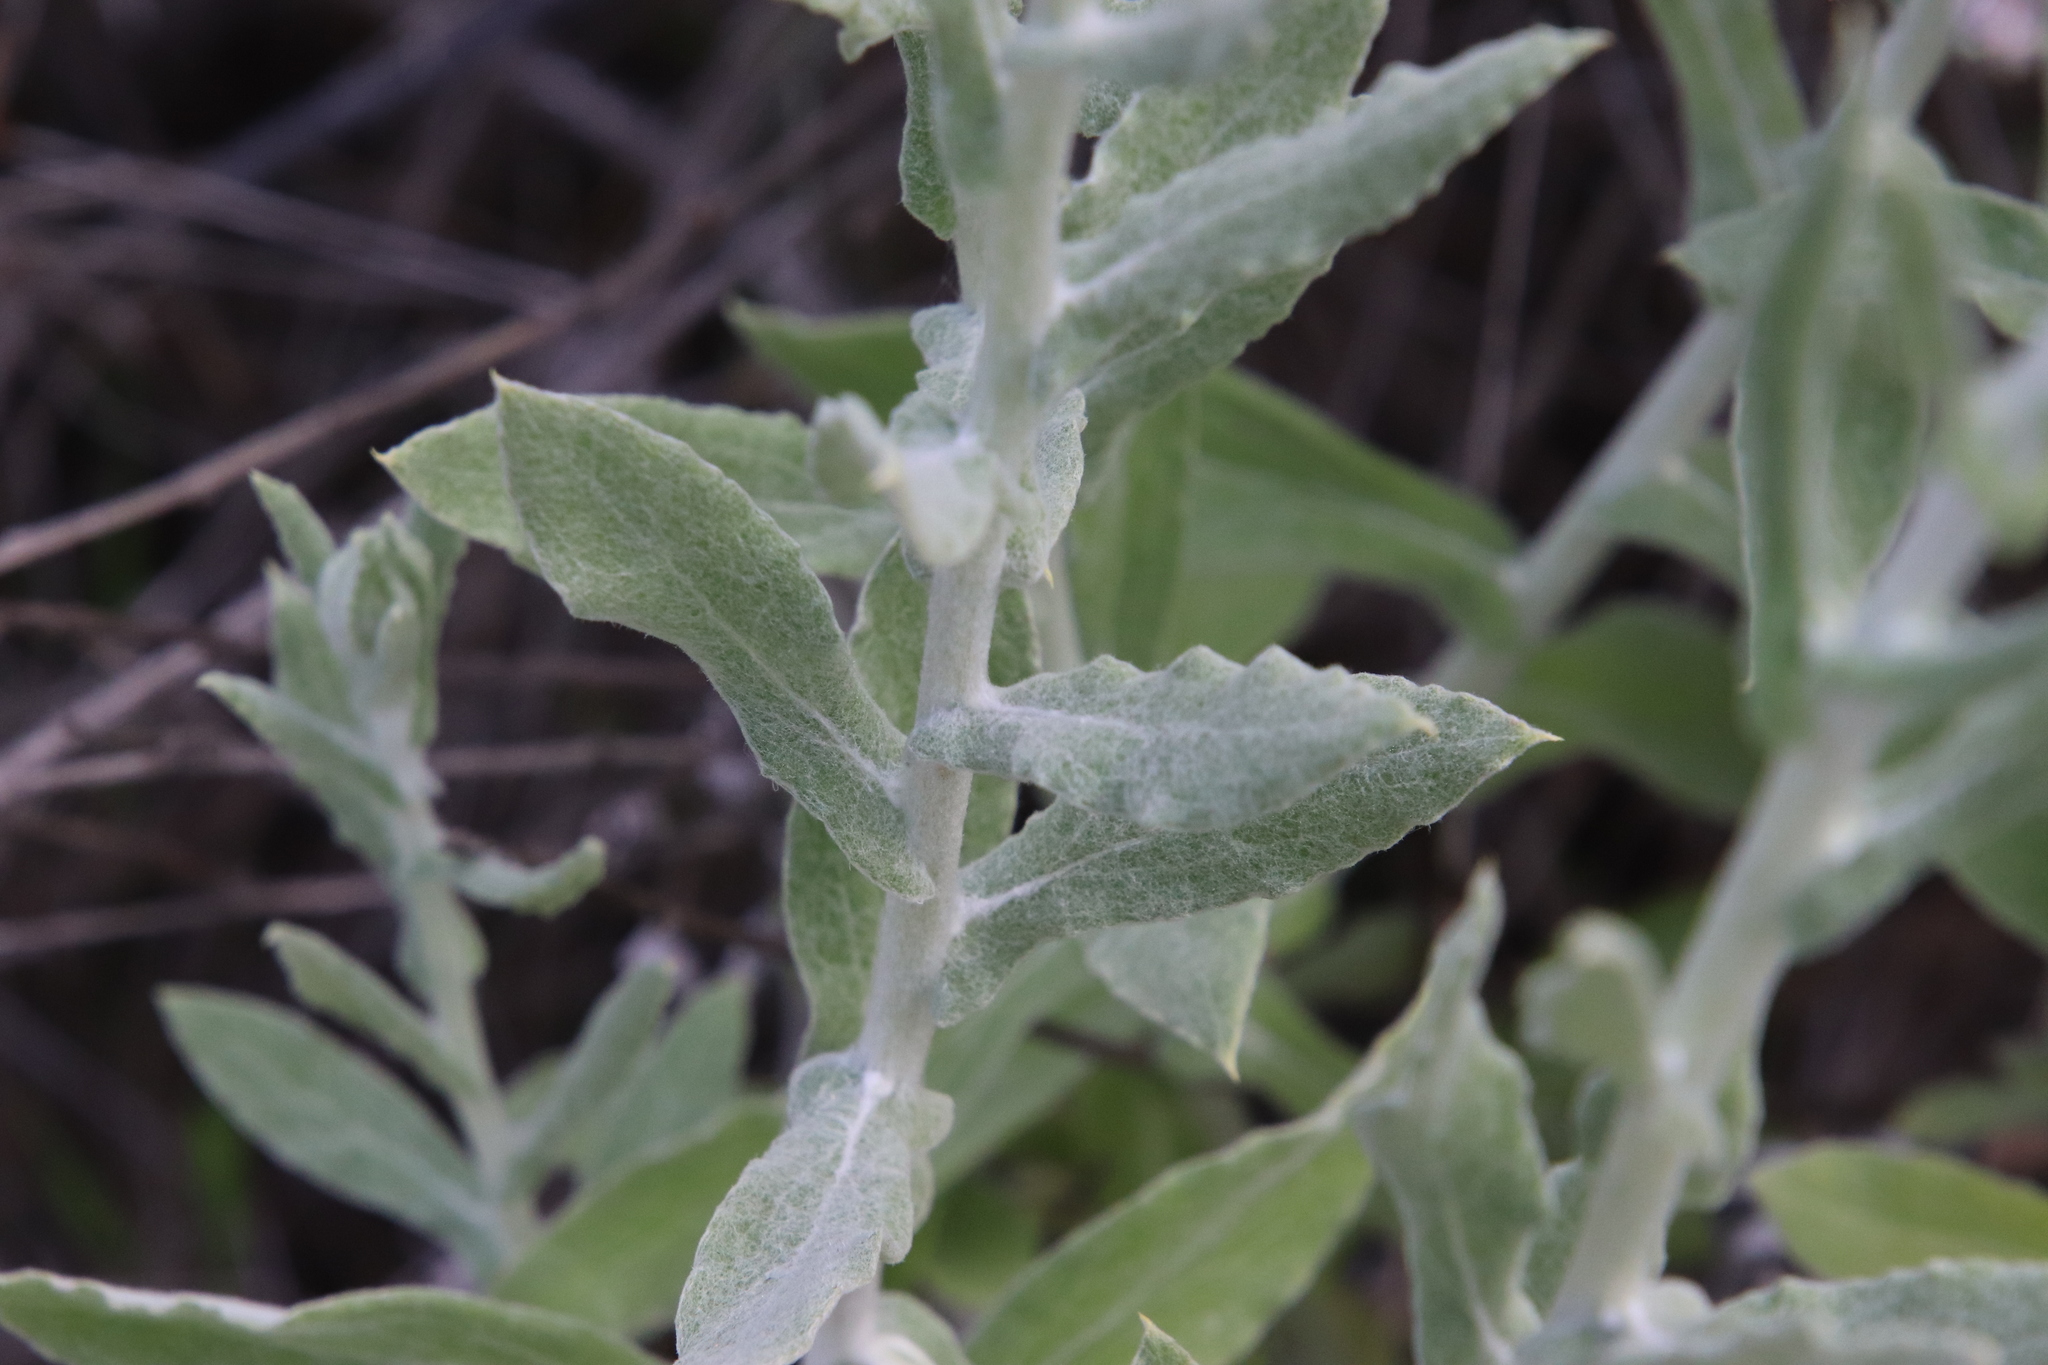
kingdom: Plantae
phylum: Tracheophyta
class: Magnoliopsida
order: Asterales
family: Asteraceae
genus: Pseudognaphalium
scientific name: Pseudognaphalium biolettii
